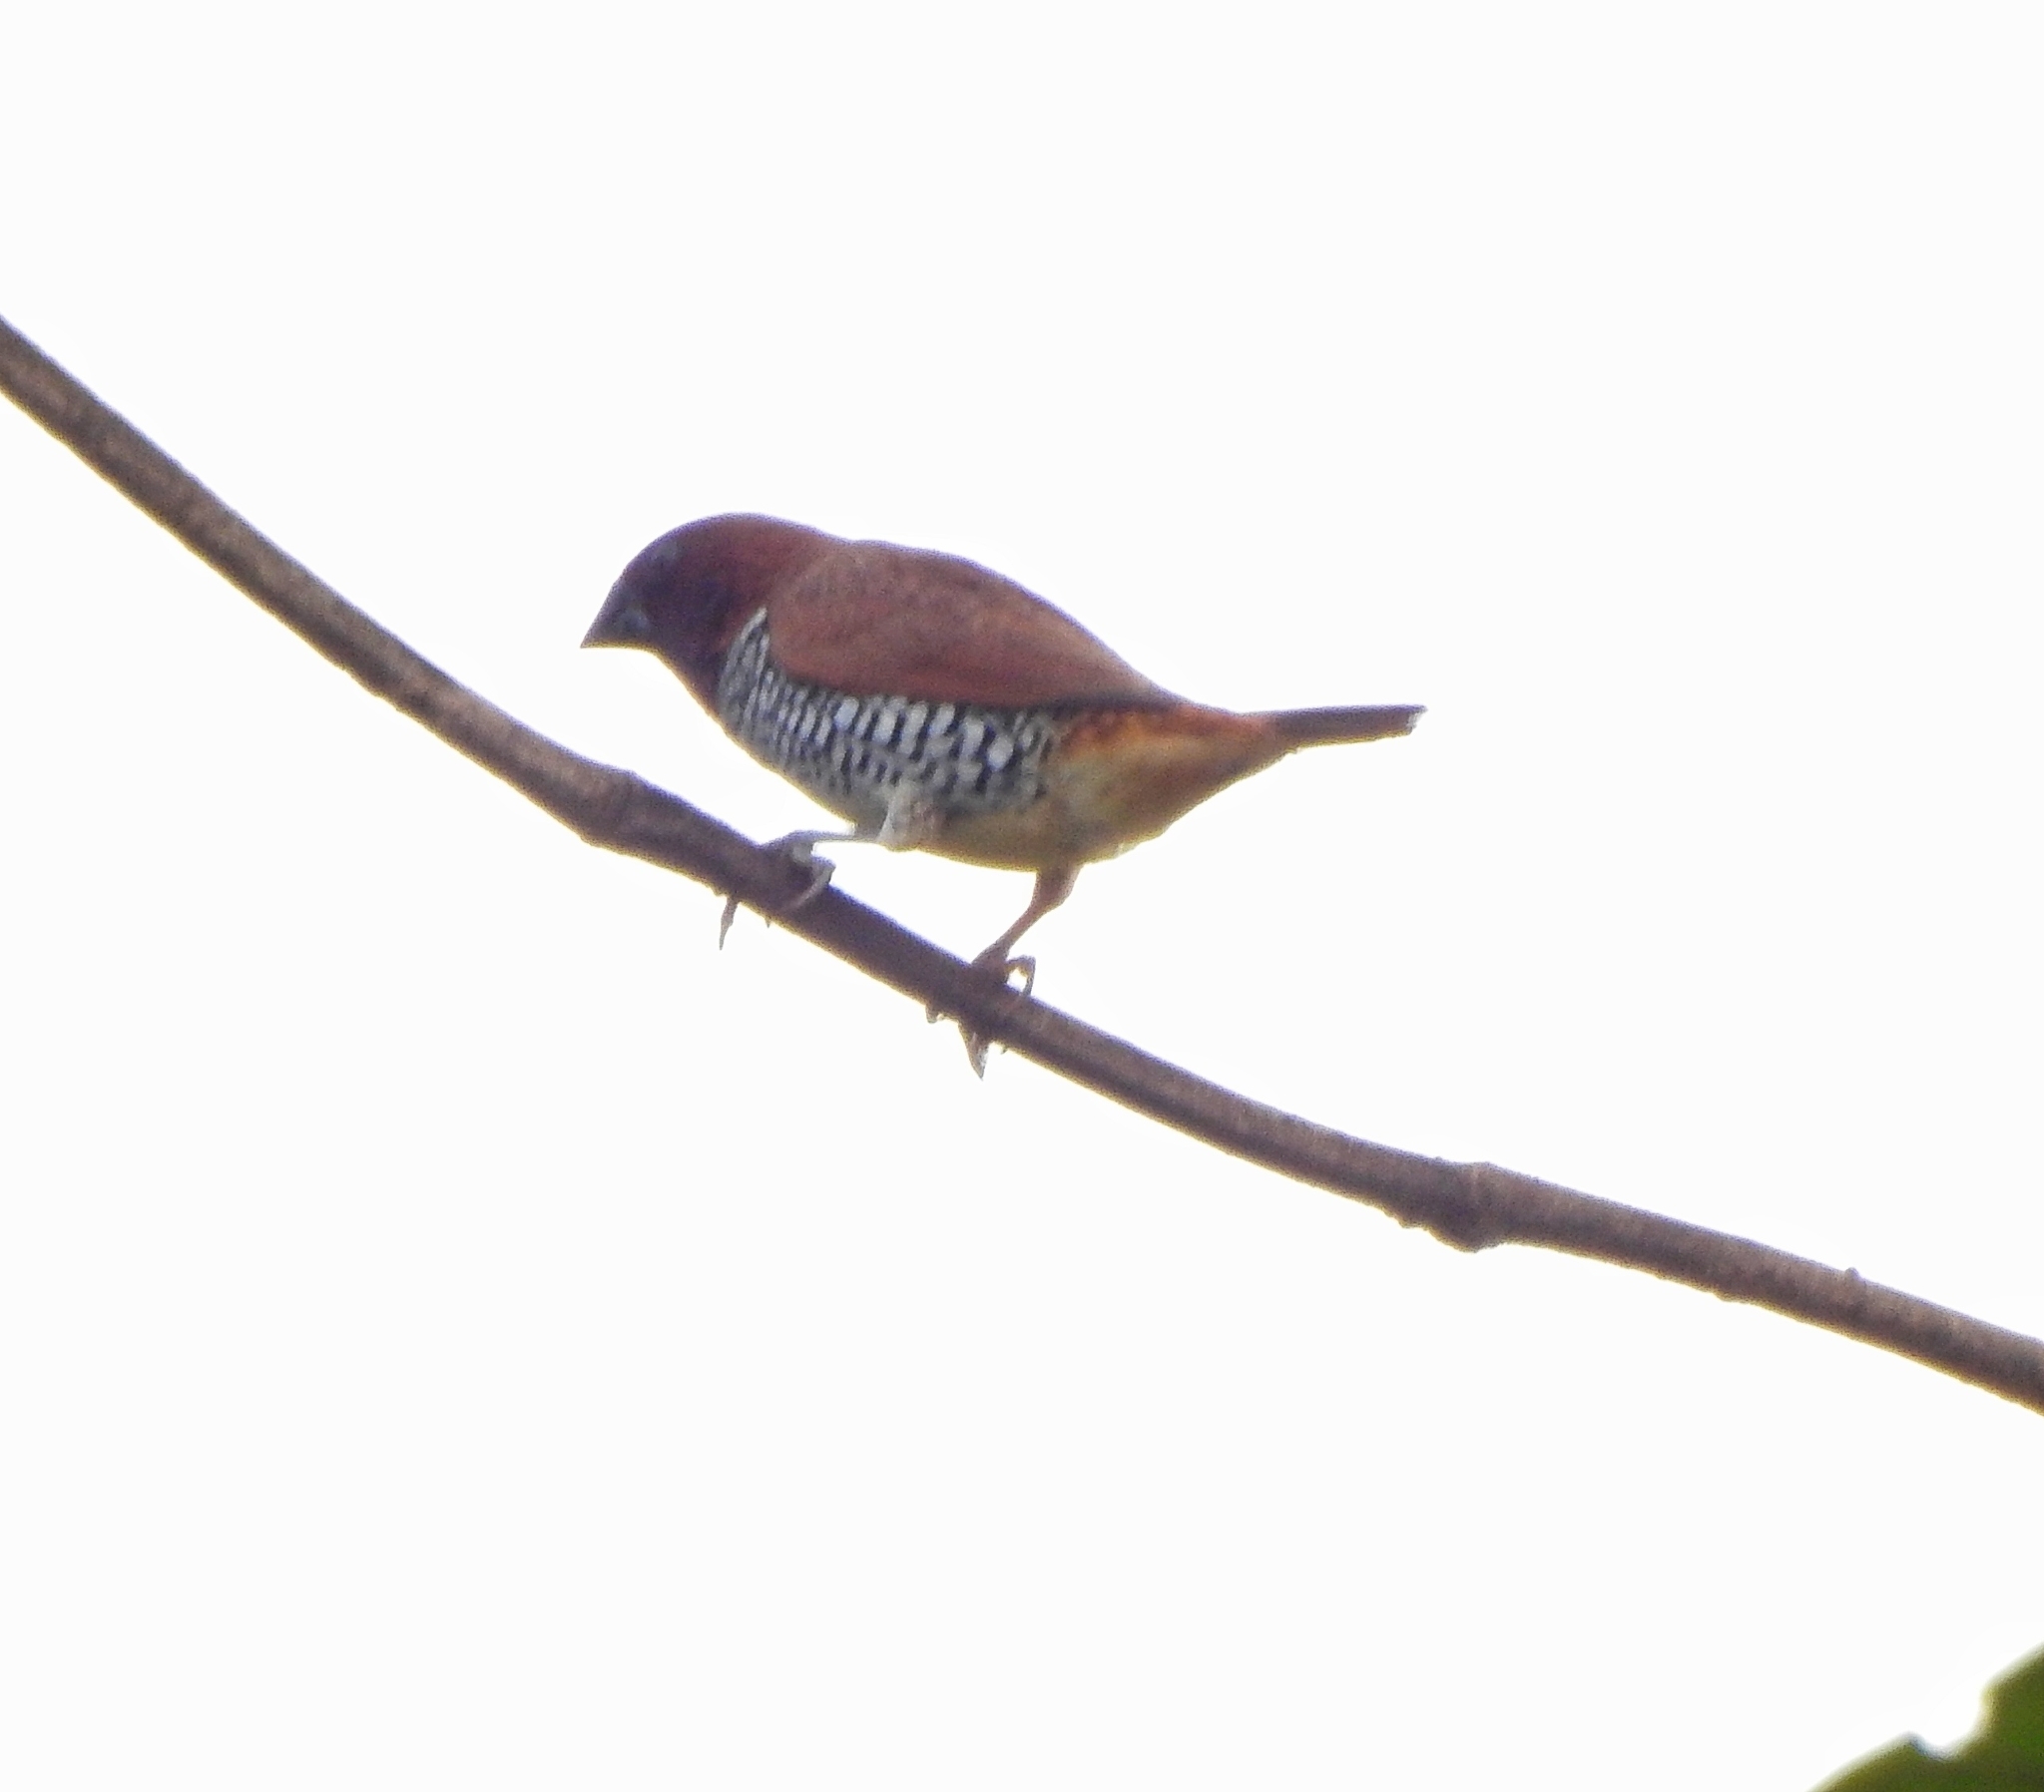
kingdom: Animalia
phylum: Chordata
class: Aves
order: Passeriformes
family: Estrildidae
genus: Lonchura
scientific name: Lonchura punctulata
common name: Scaly-breasted munia
